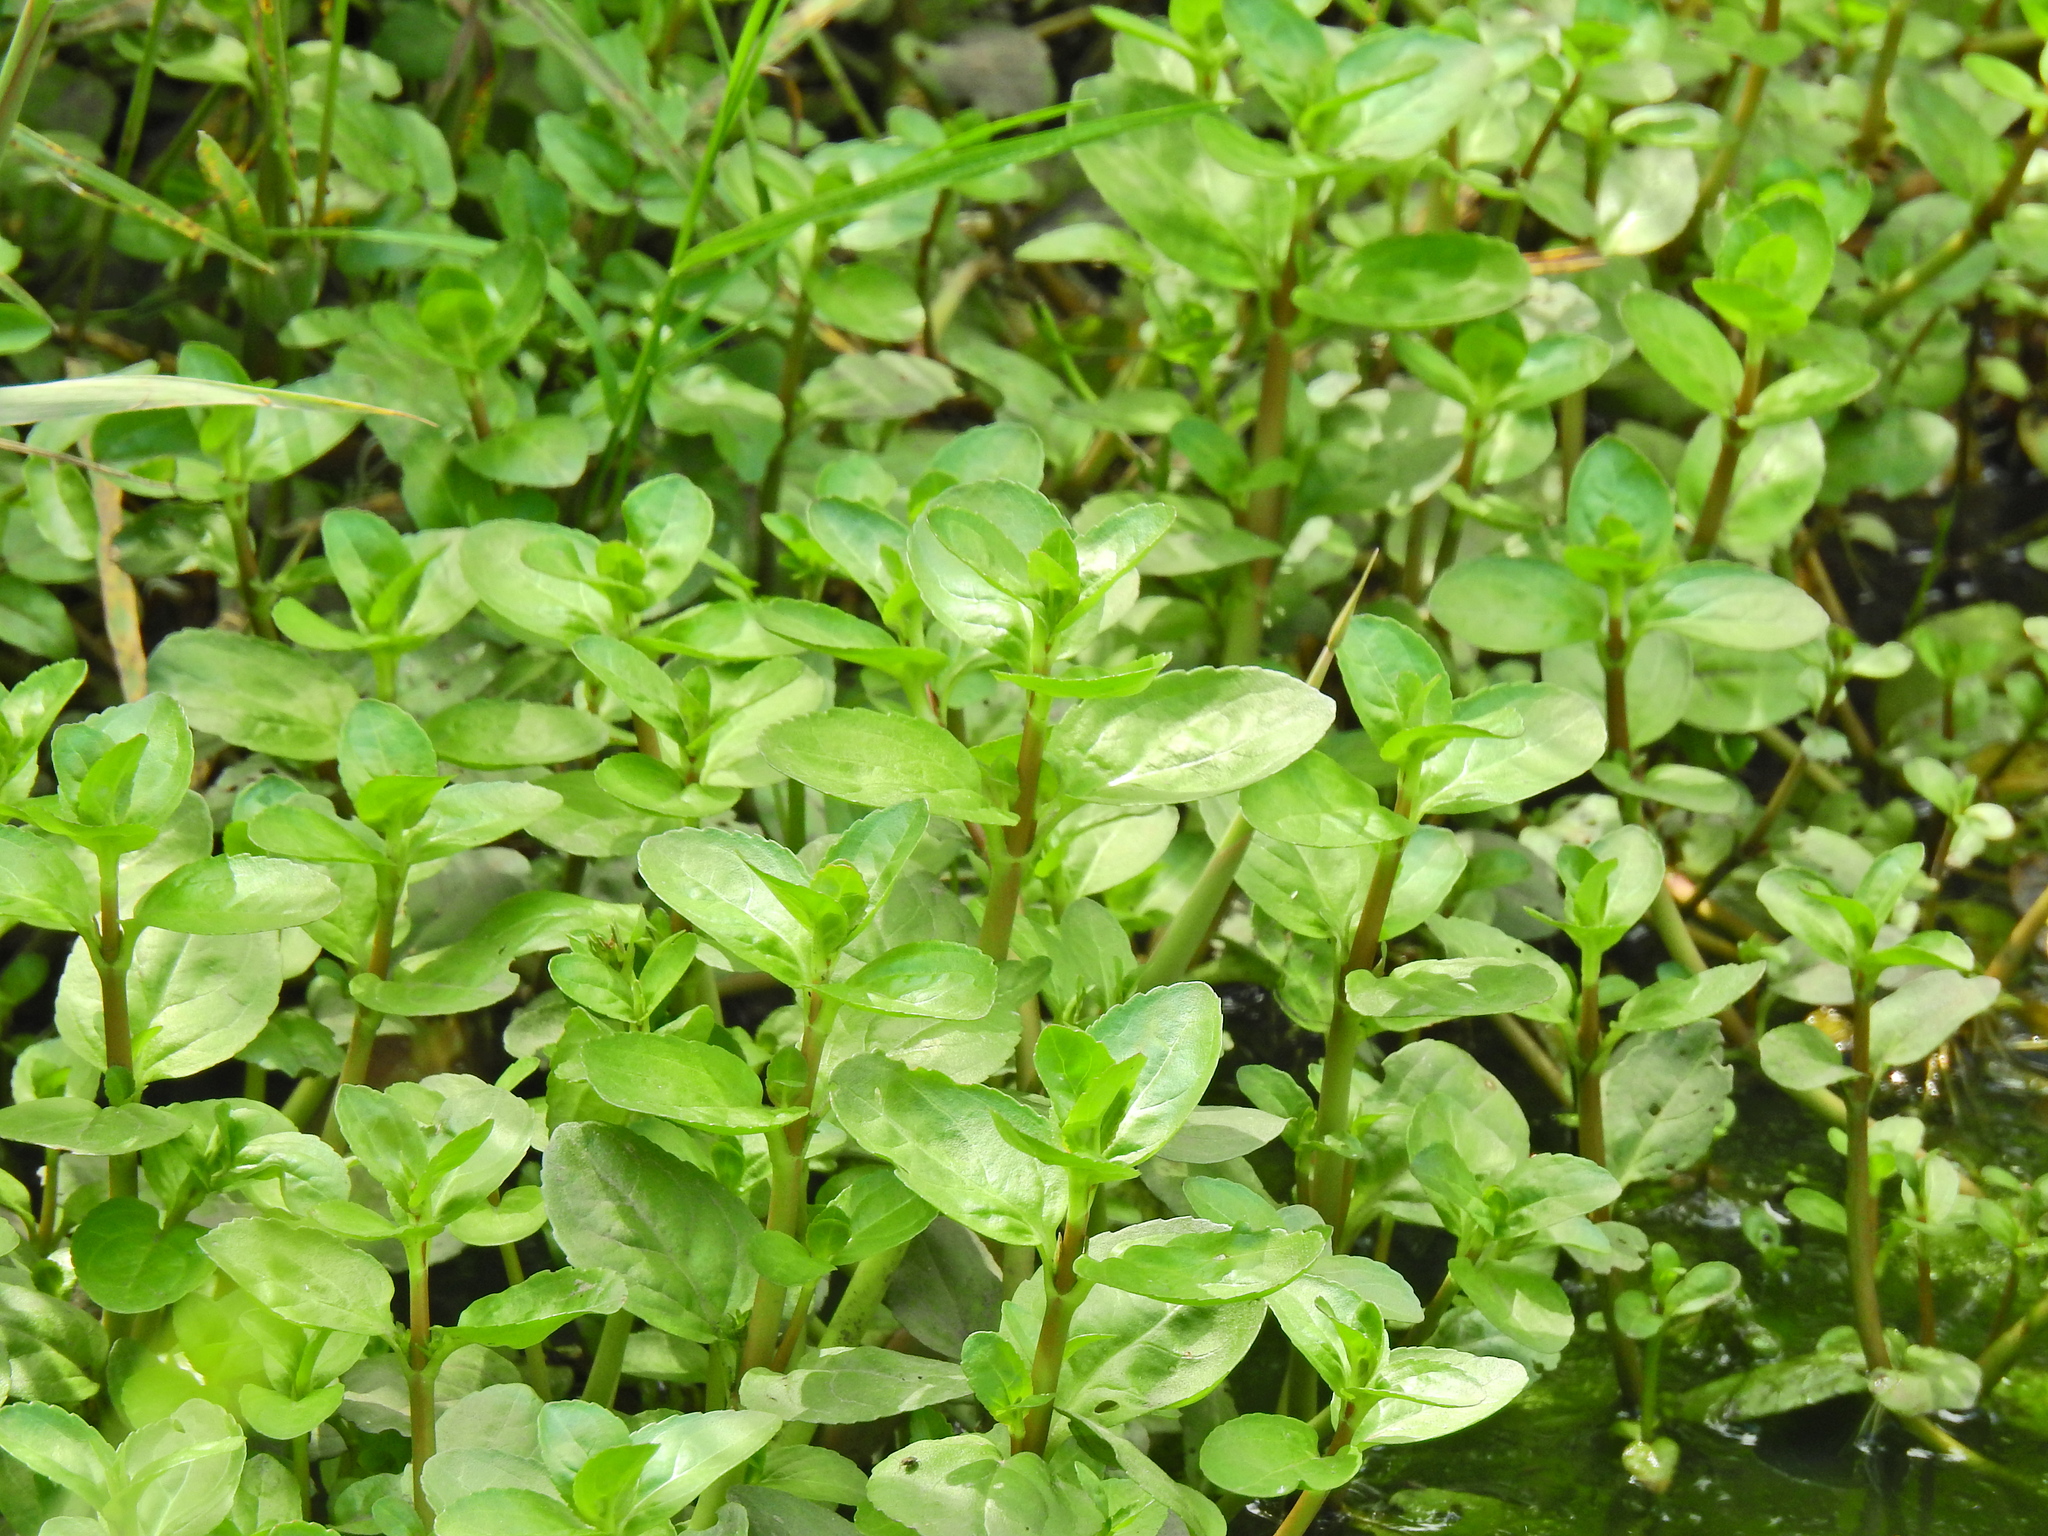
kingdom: Plantae
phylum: Tracheophyta
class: Magnoliopsida
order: Lamiales
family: Plantaginaceae
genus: Veronica
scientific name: Veronica beccabunga
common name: Brooklime
